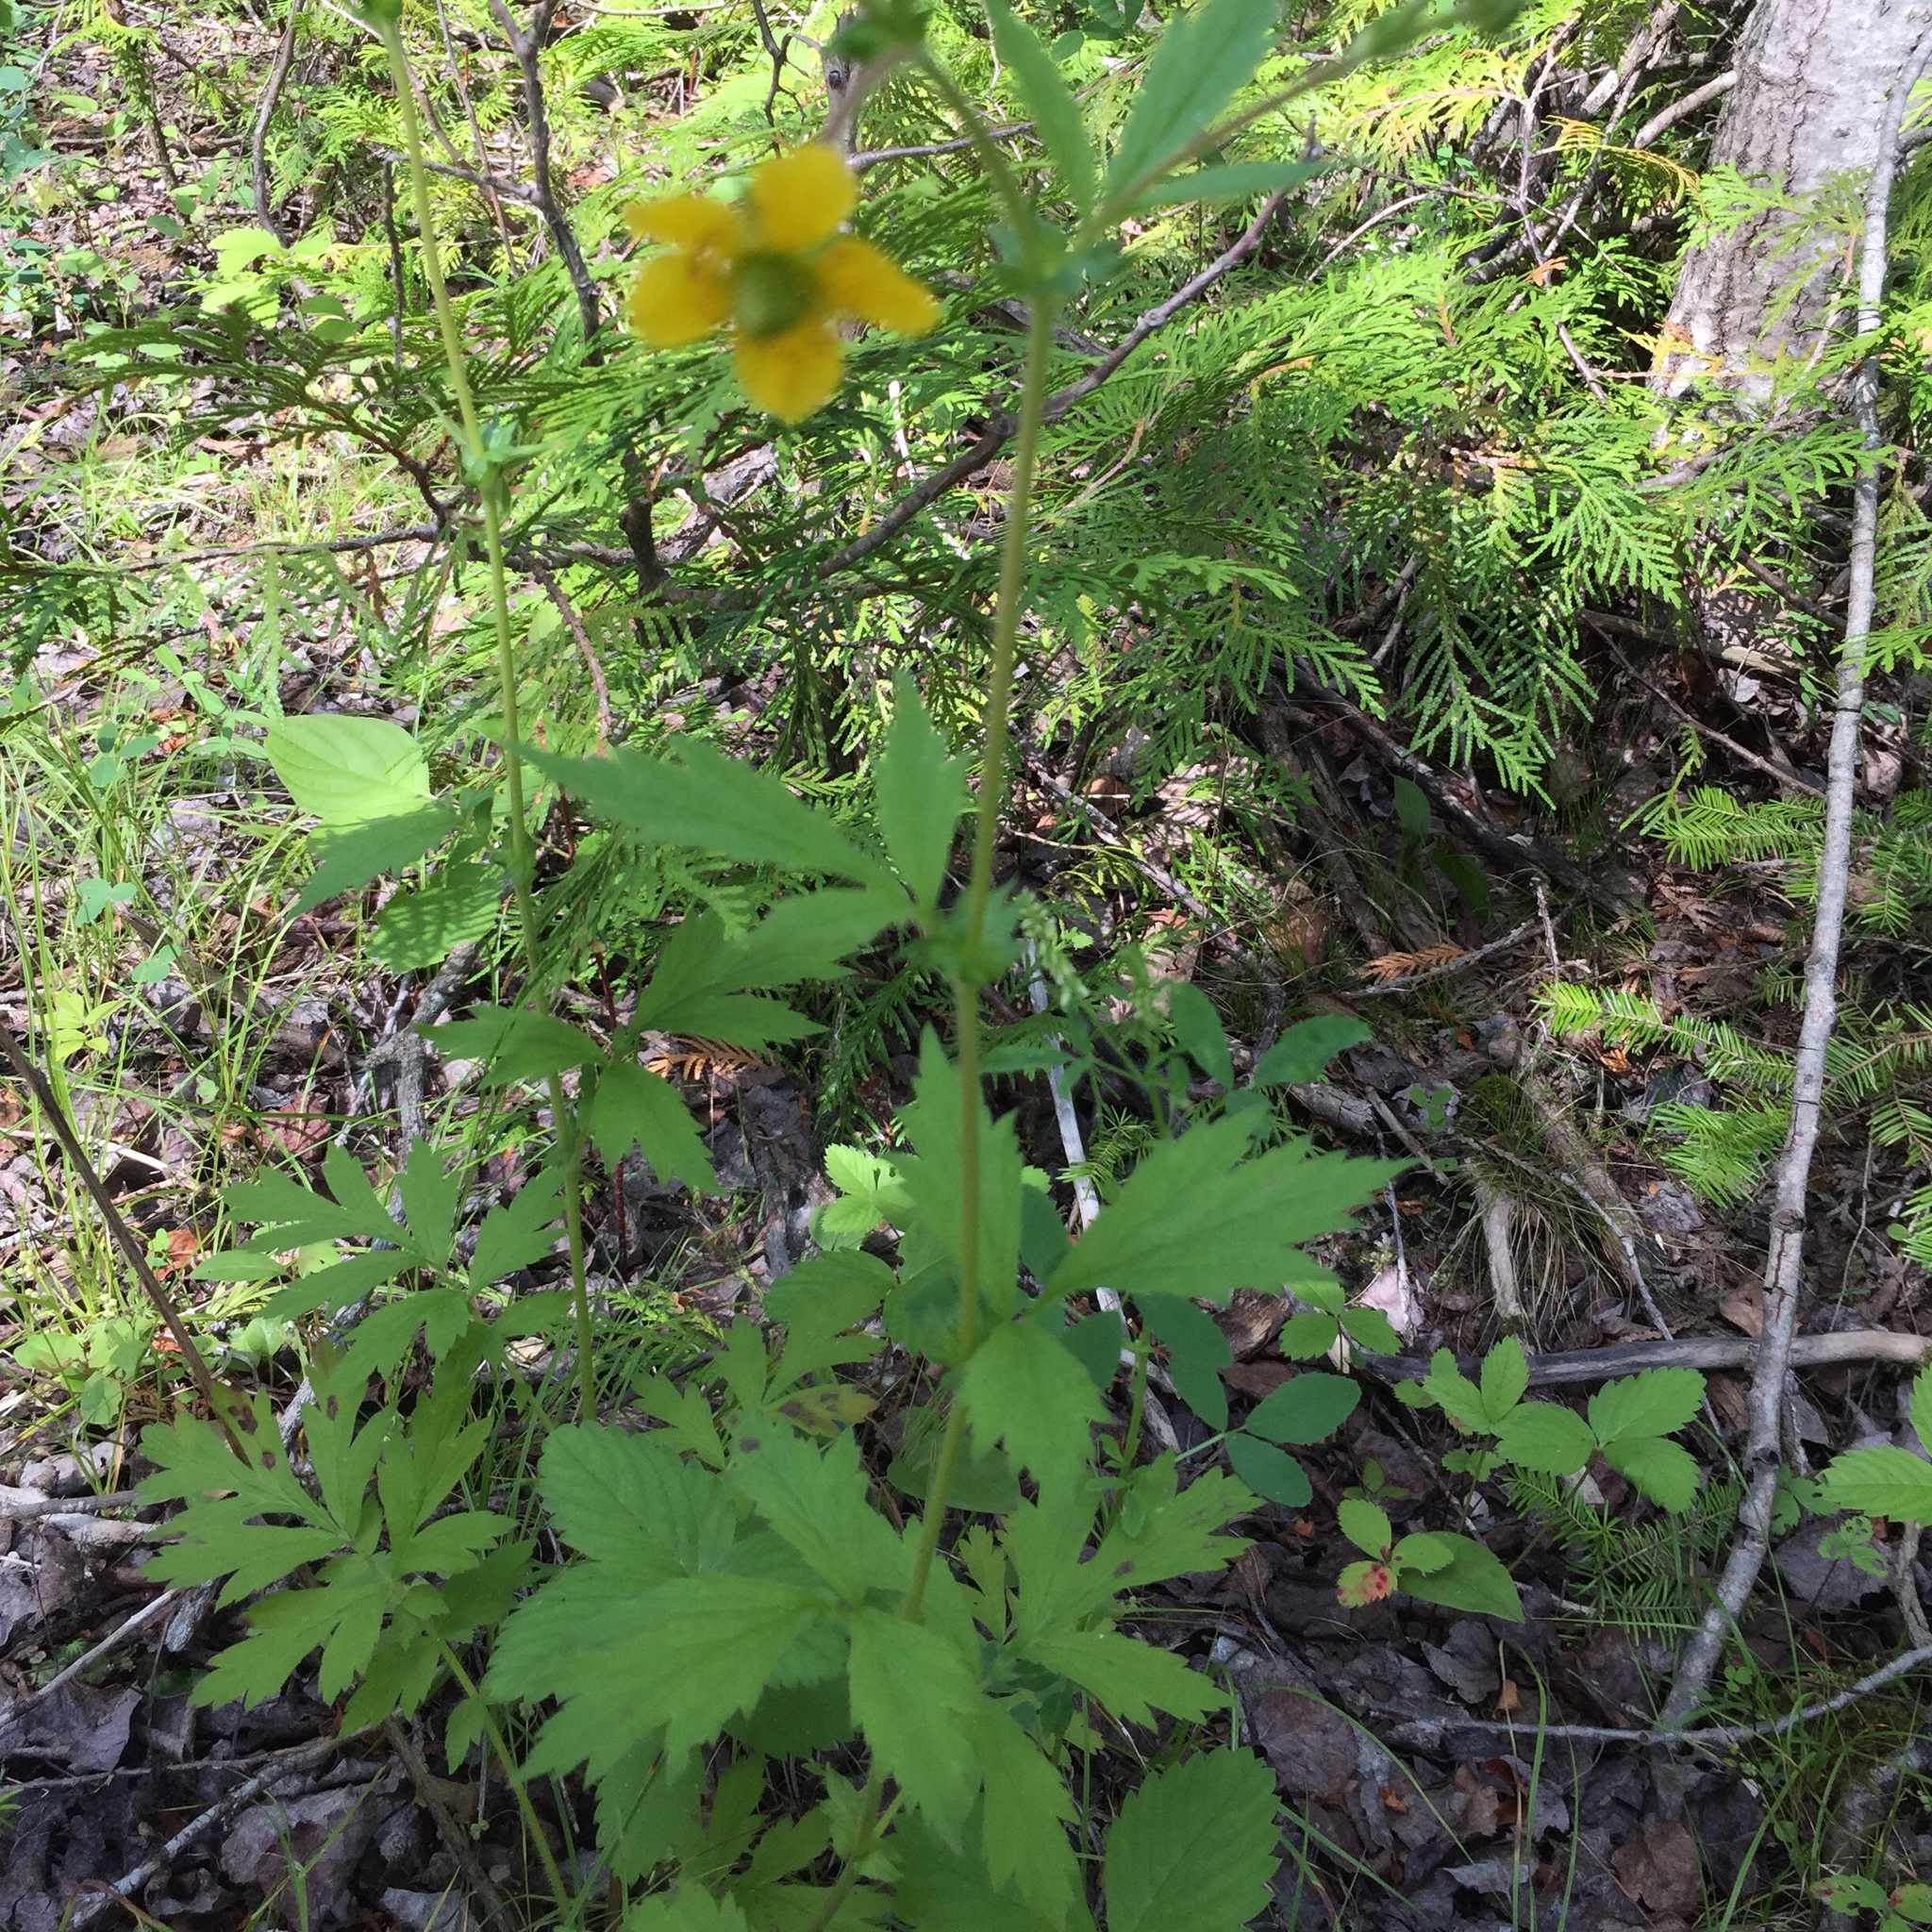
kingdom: Plantae
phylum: Tracheophyta
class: Magnoliopsida
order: Rosales
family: Rosaceae
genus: Geum
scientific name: Geum aleppicum
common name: Yellow avens
